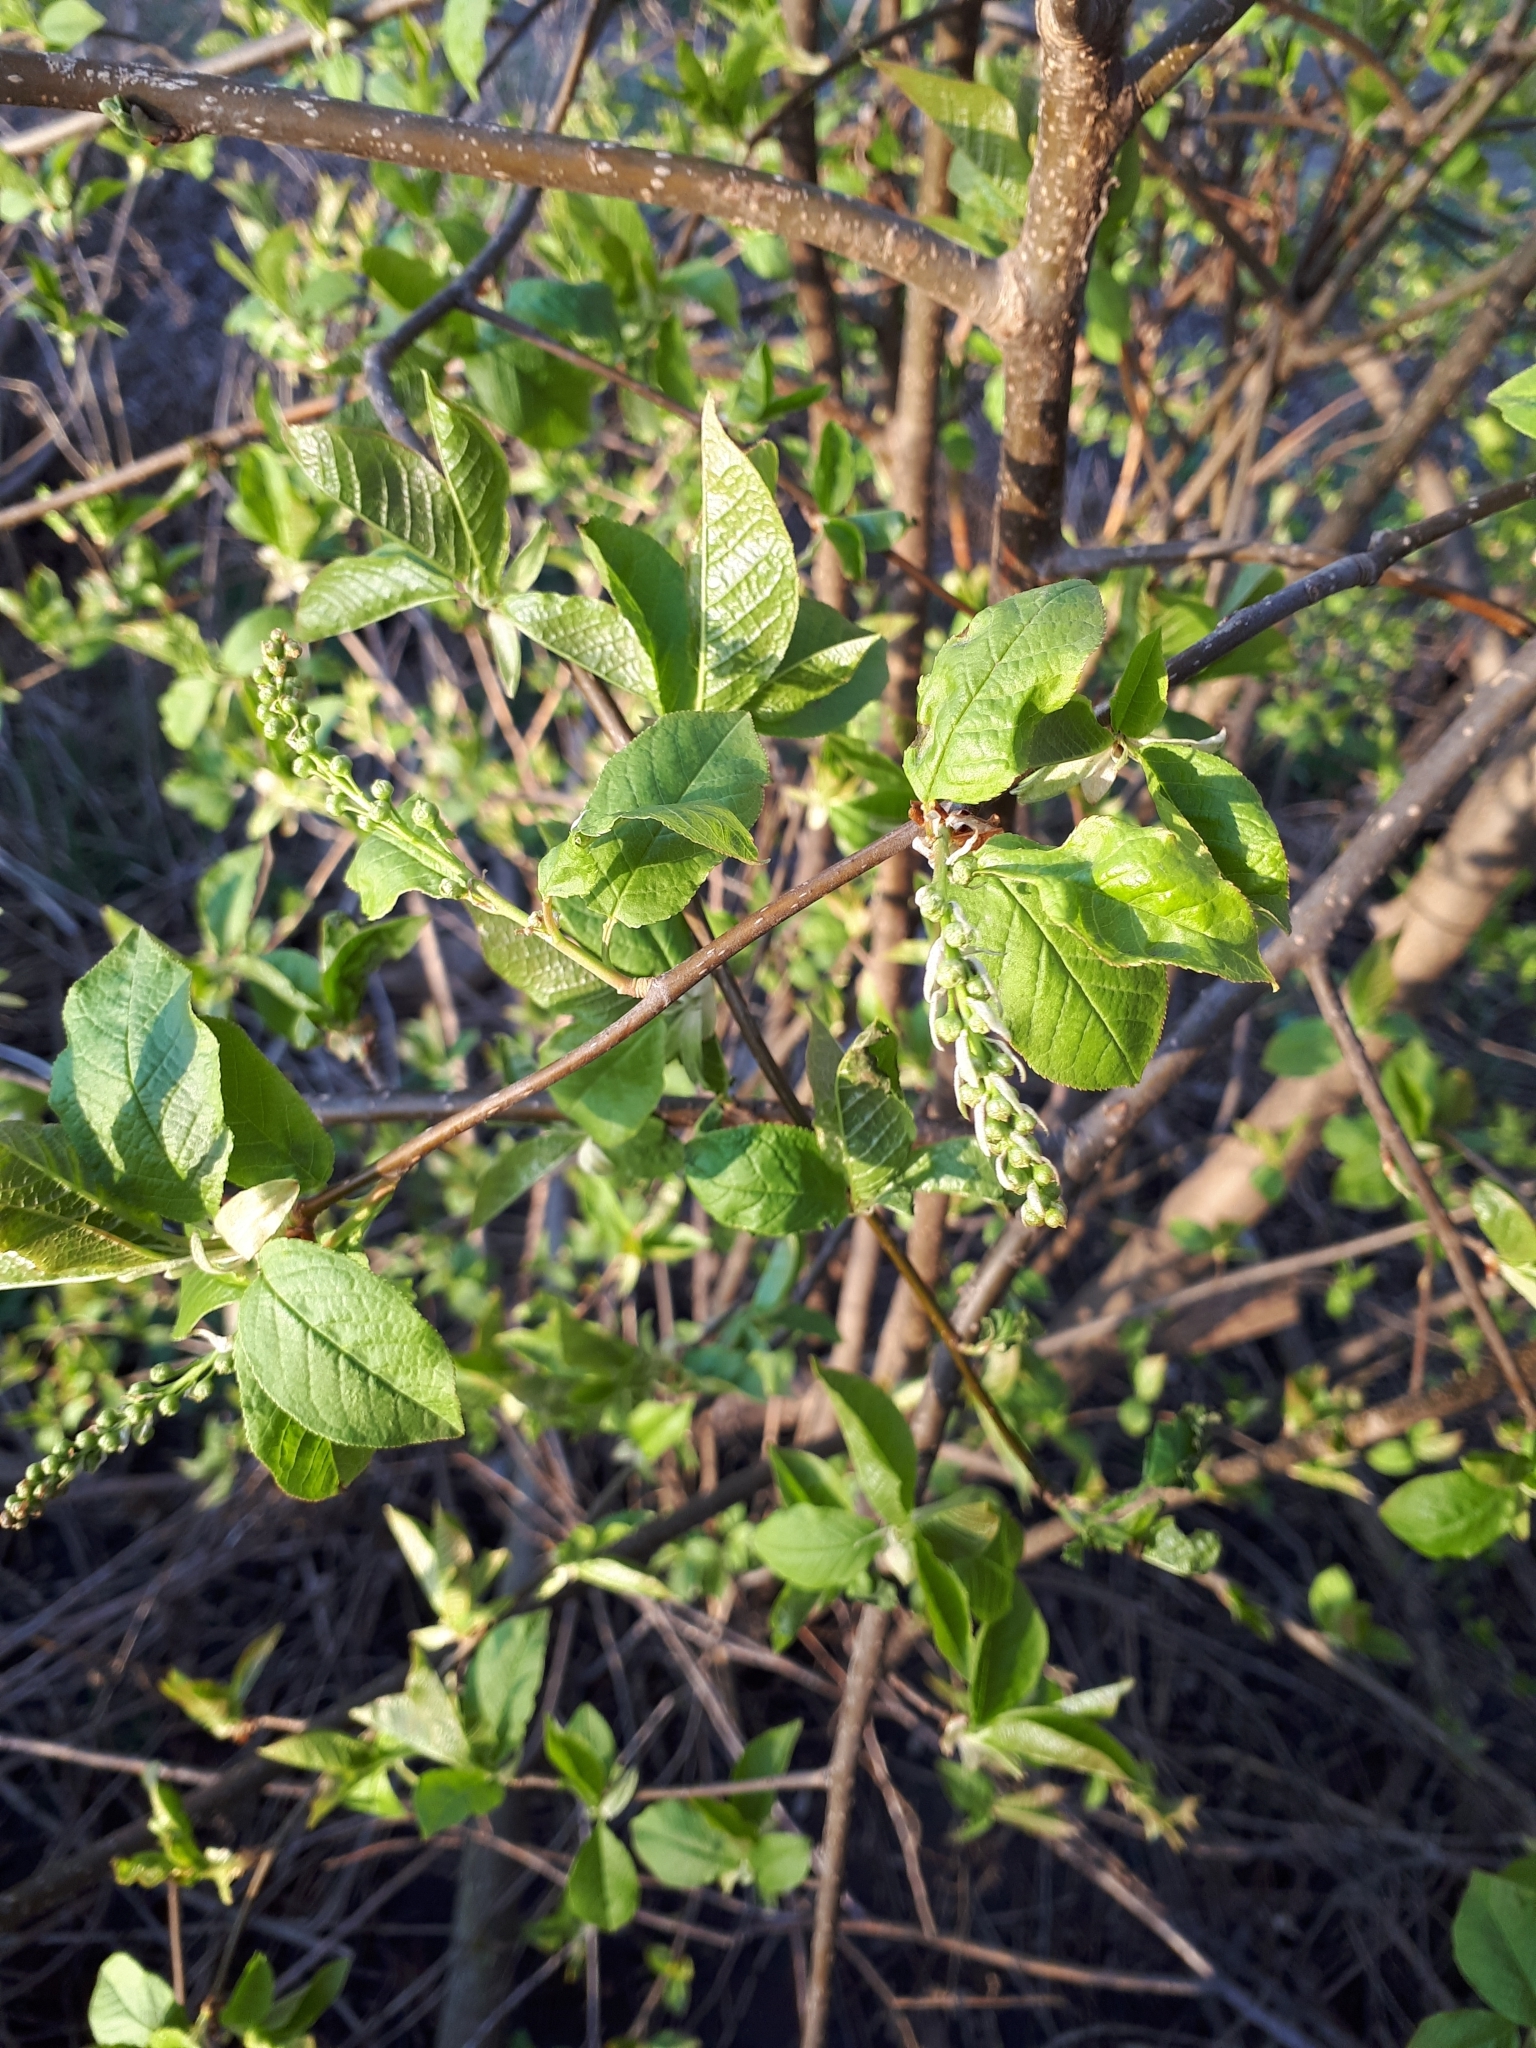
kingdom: Plantae
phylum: Tracheophyta
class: Magnoliopsida
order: Rosales
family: Rosaceae
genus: Prunus
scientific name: Prunus padus
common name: Bird cherry
